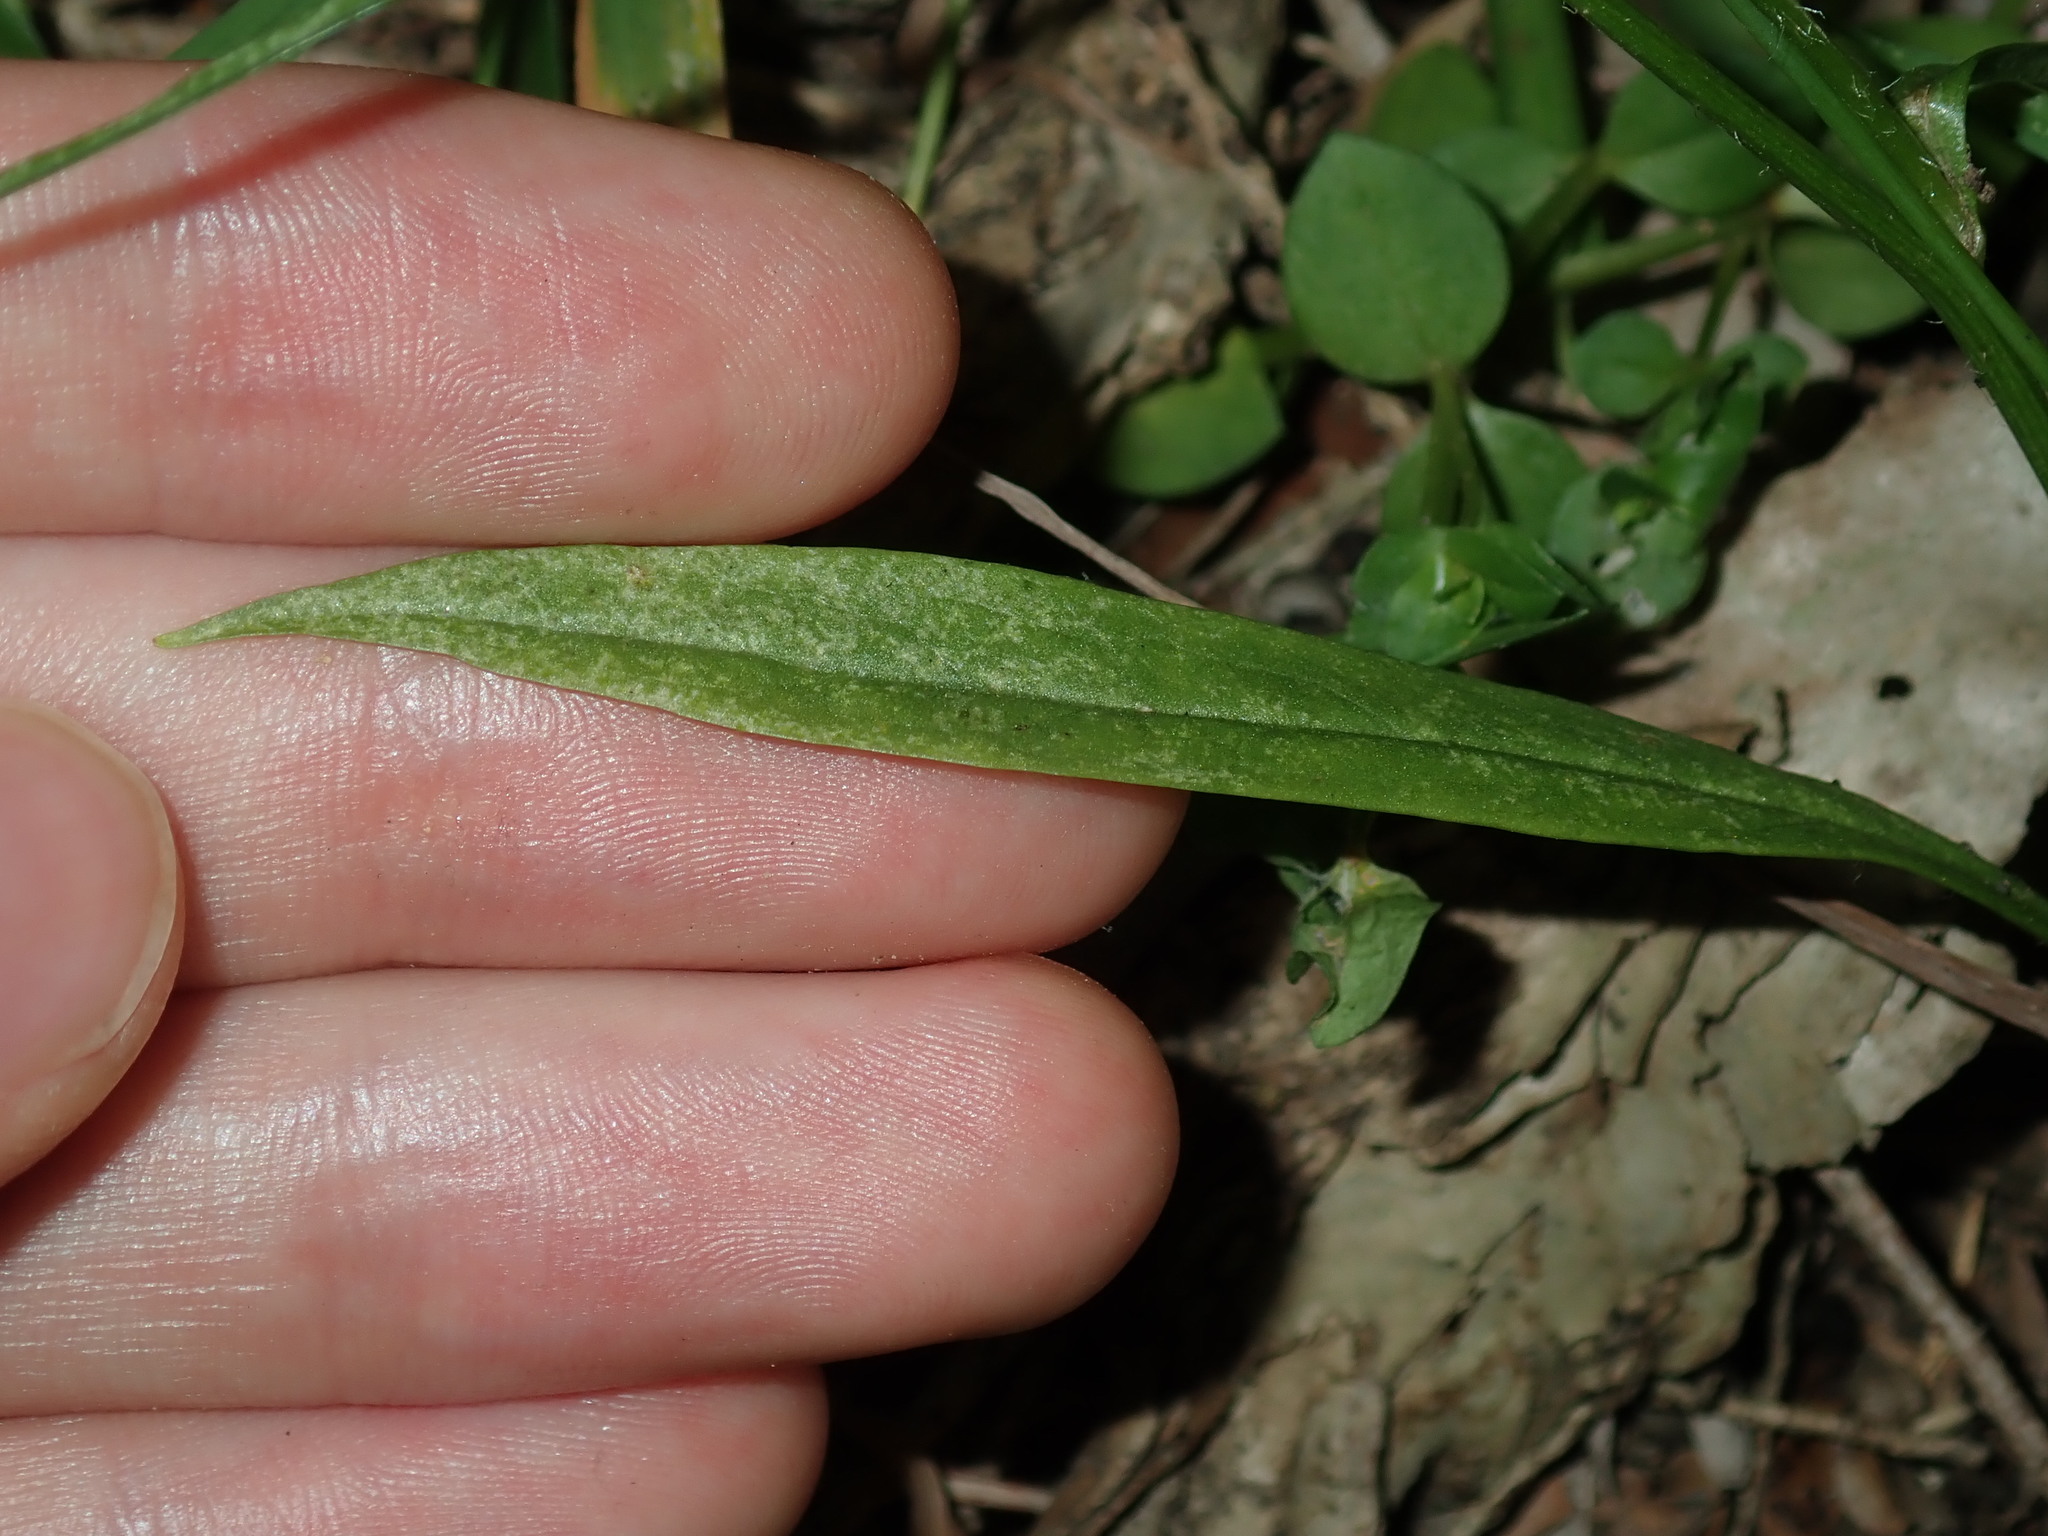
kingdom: Plantae
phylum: Tracheophyta
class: Magnoliopsida
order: Asterales
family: Asteraceae
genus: Hypochaeris
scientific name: Hypochaeris albiflora
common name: White flatweed
